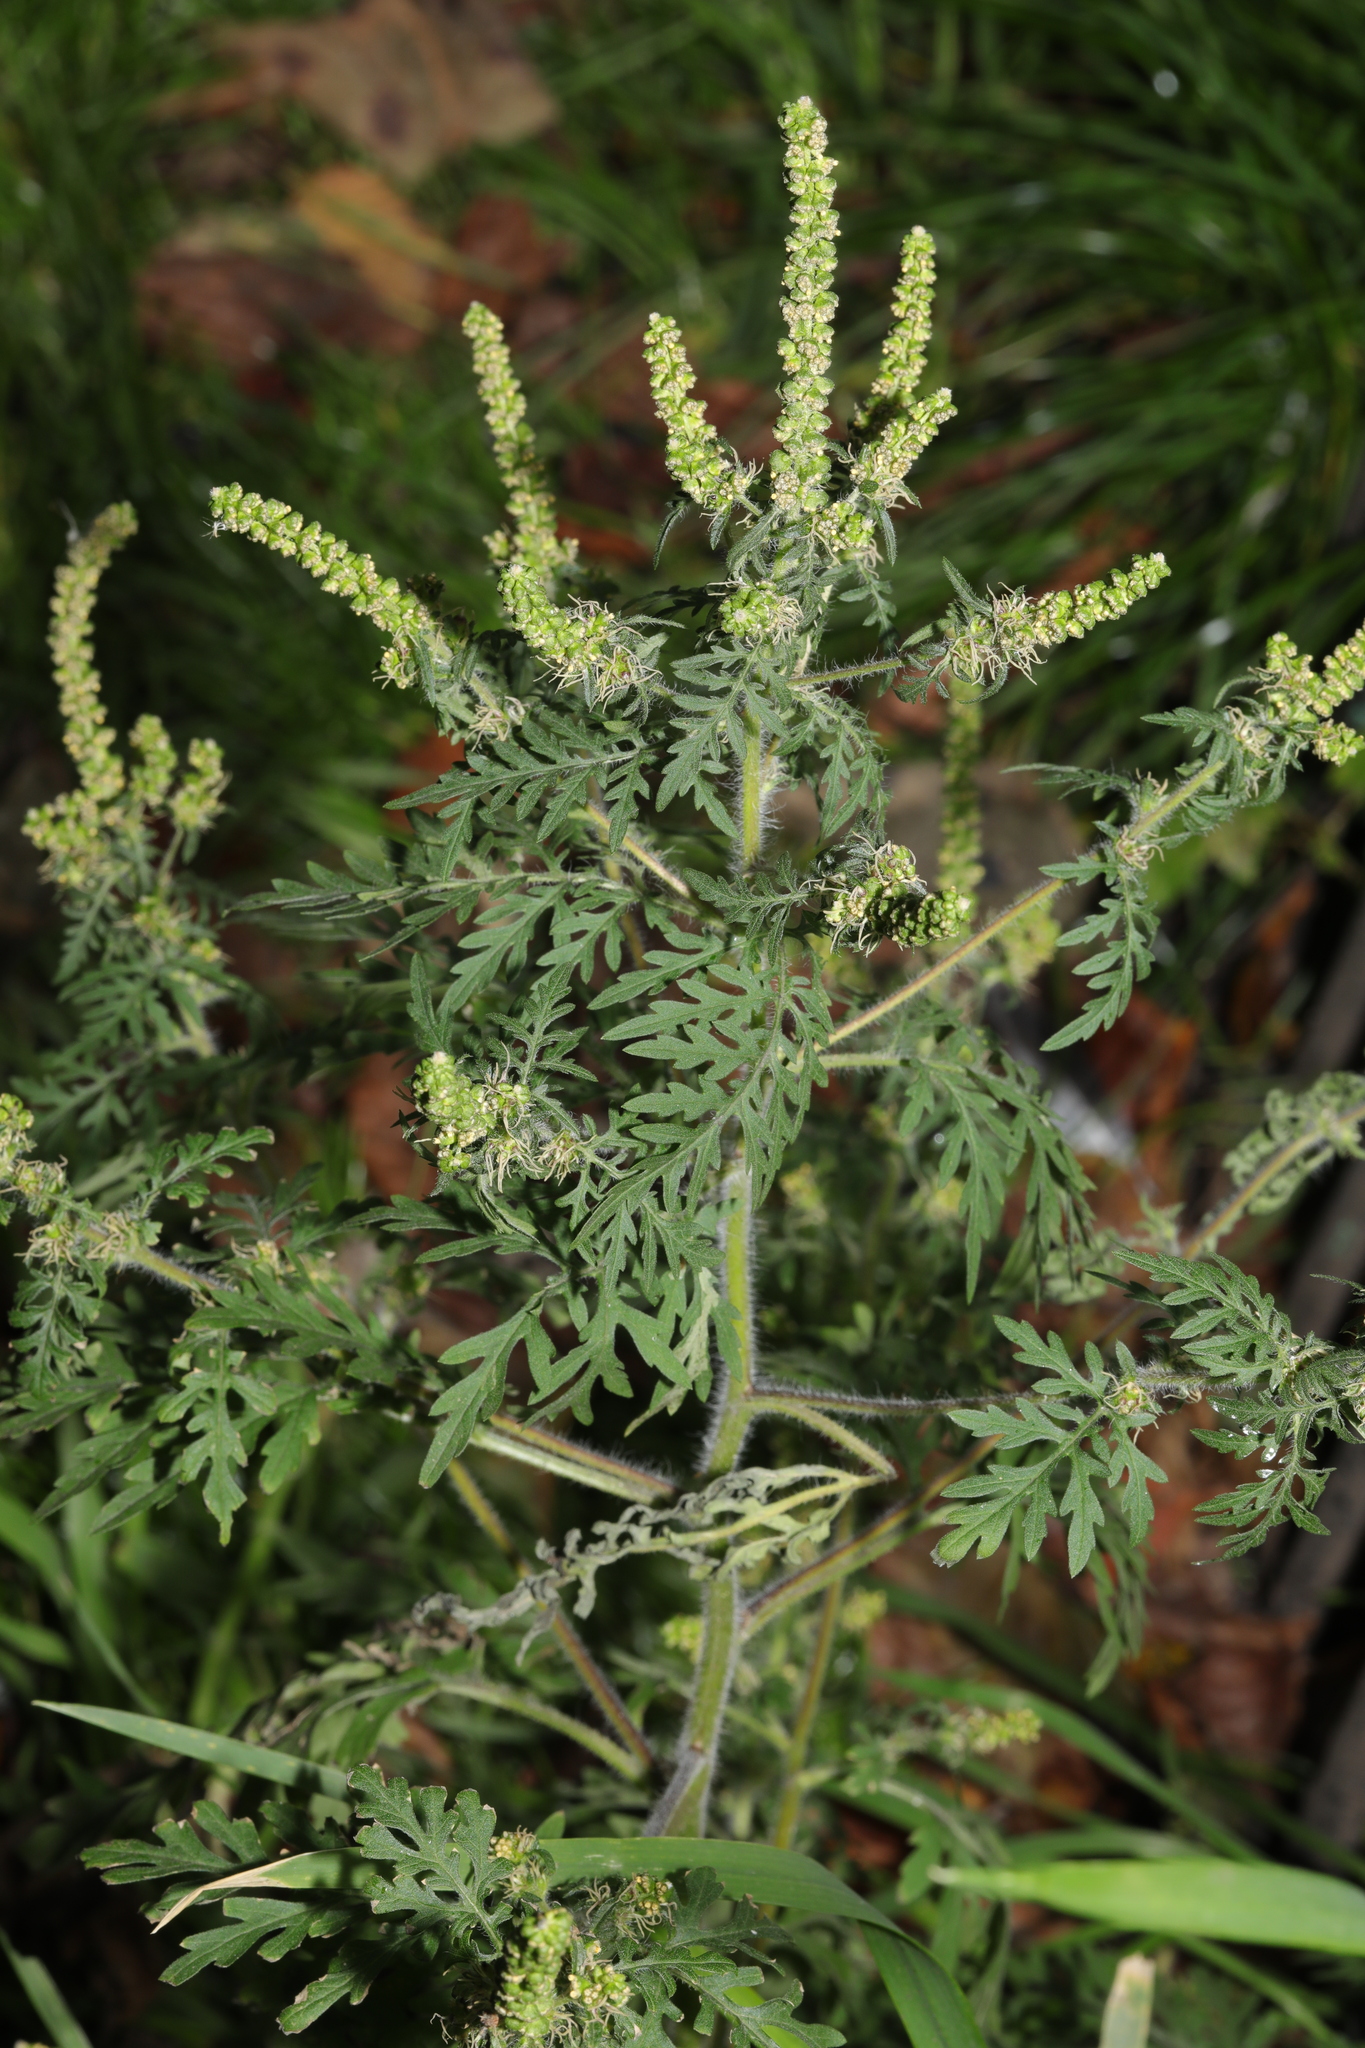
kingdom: Plantae
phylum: Tracheophyta
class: Magnoliopsida
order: Asterales
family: Asteraceae
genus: Ambrosia
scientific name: Ambrosia artemisiifolia
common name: Annual ragweed
